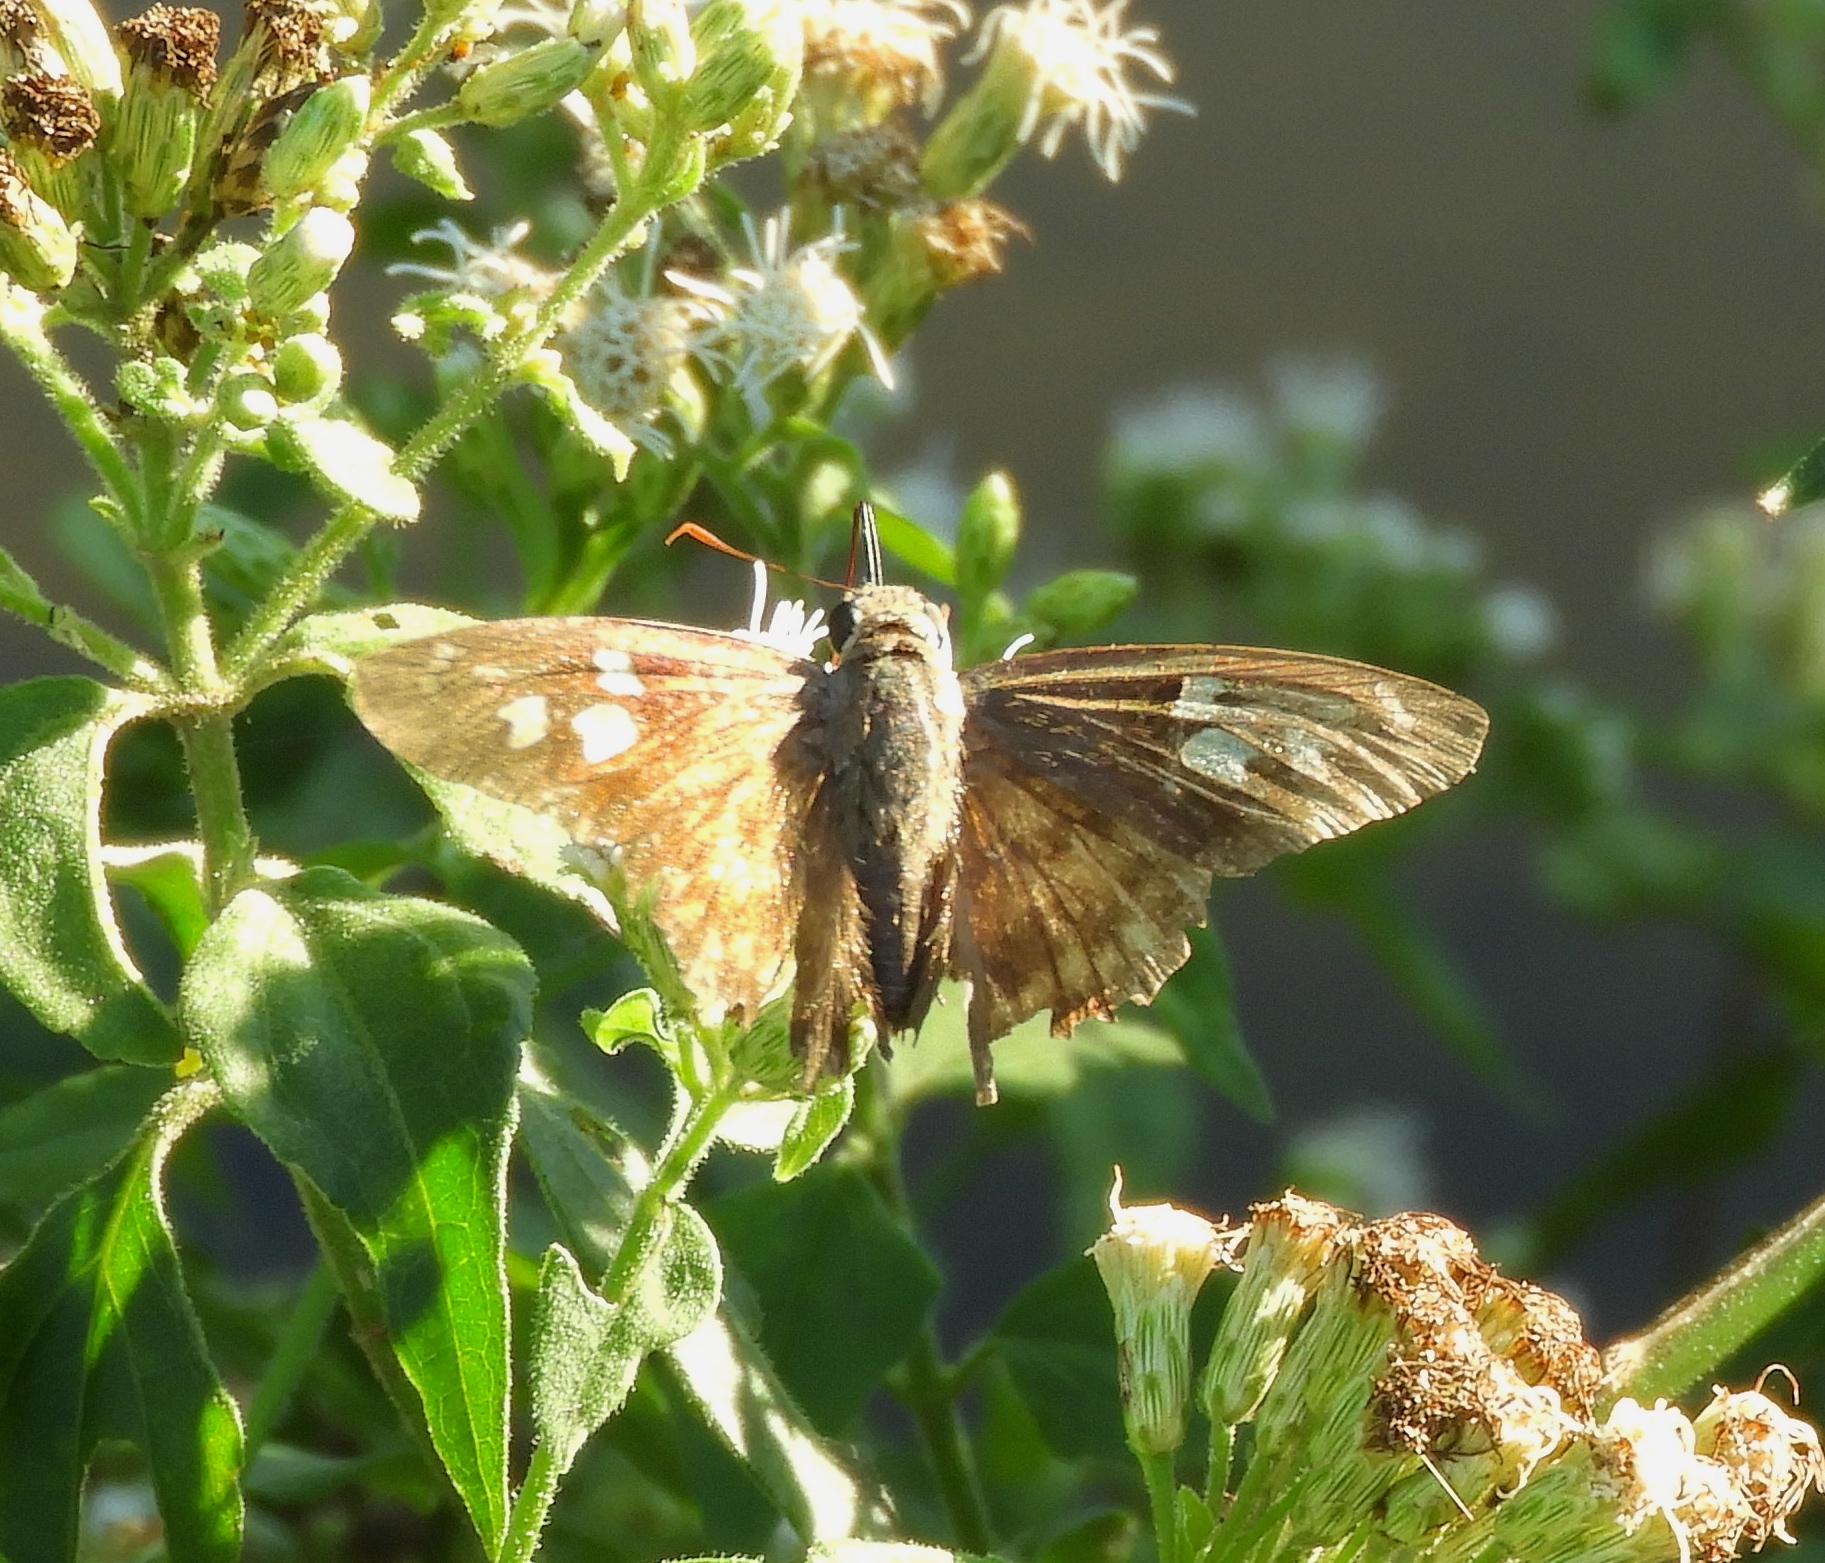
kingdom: Animalia
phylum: Arthropoda
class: Insecta
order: Lepidoptera
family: Hesperiidae
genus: Polygonus
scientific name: Polygonus leo
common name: Hammoch skipper
